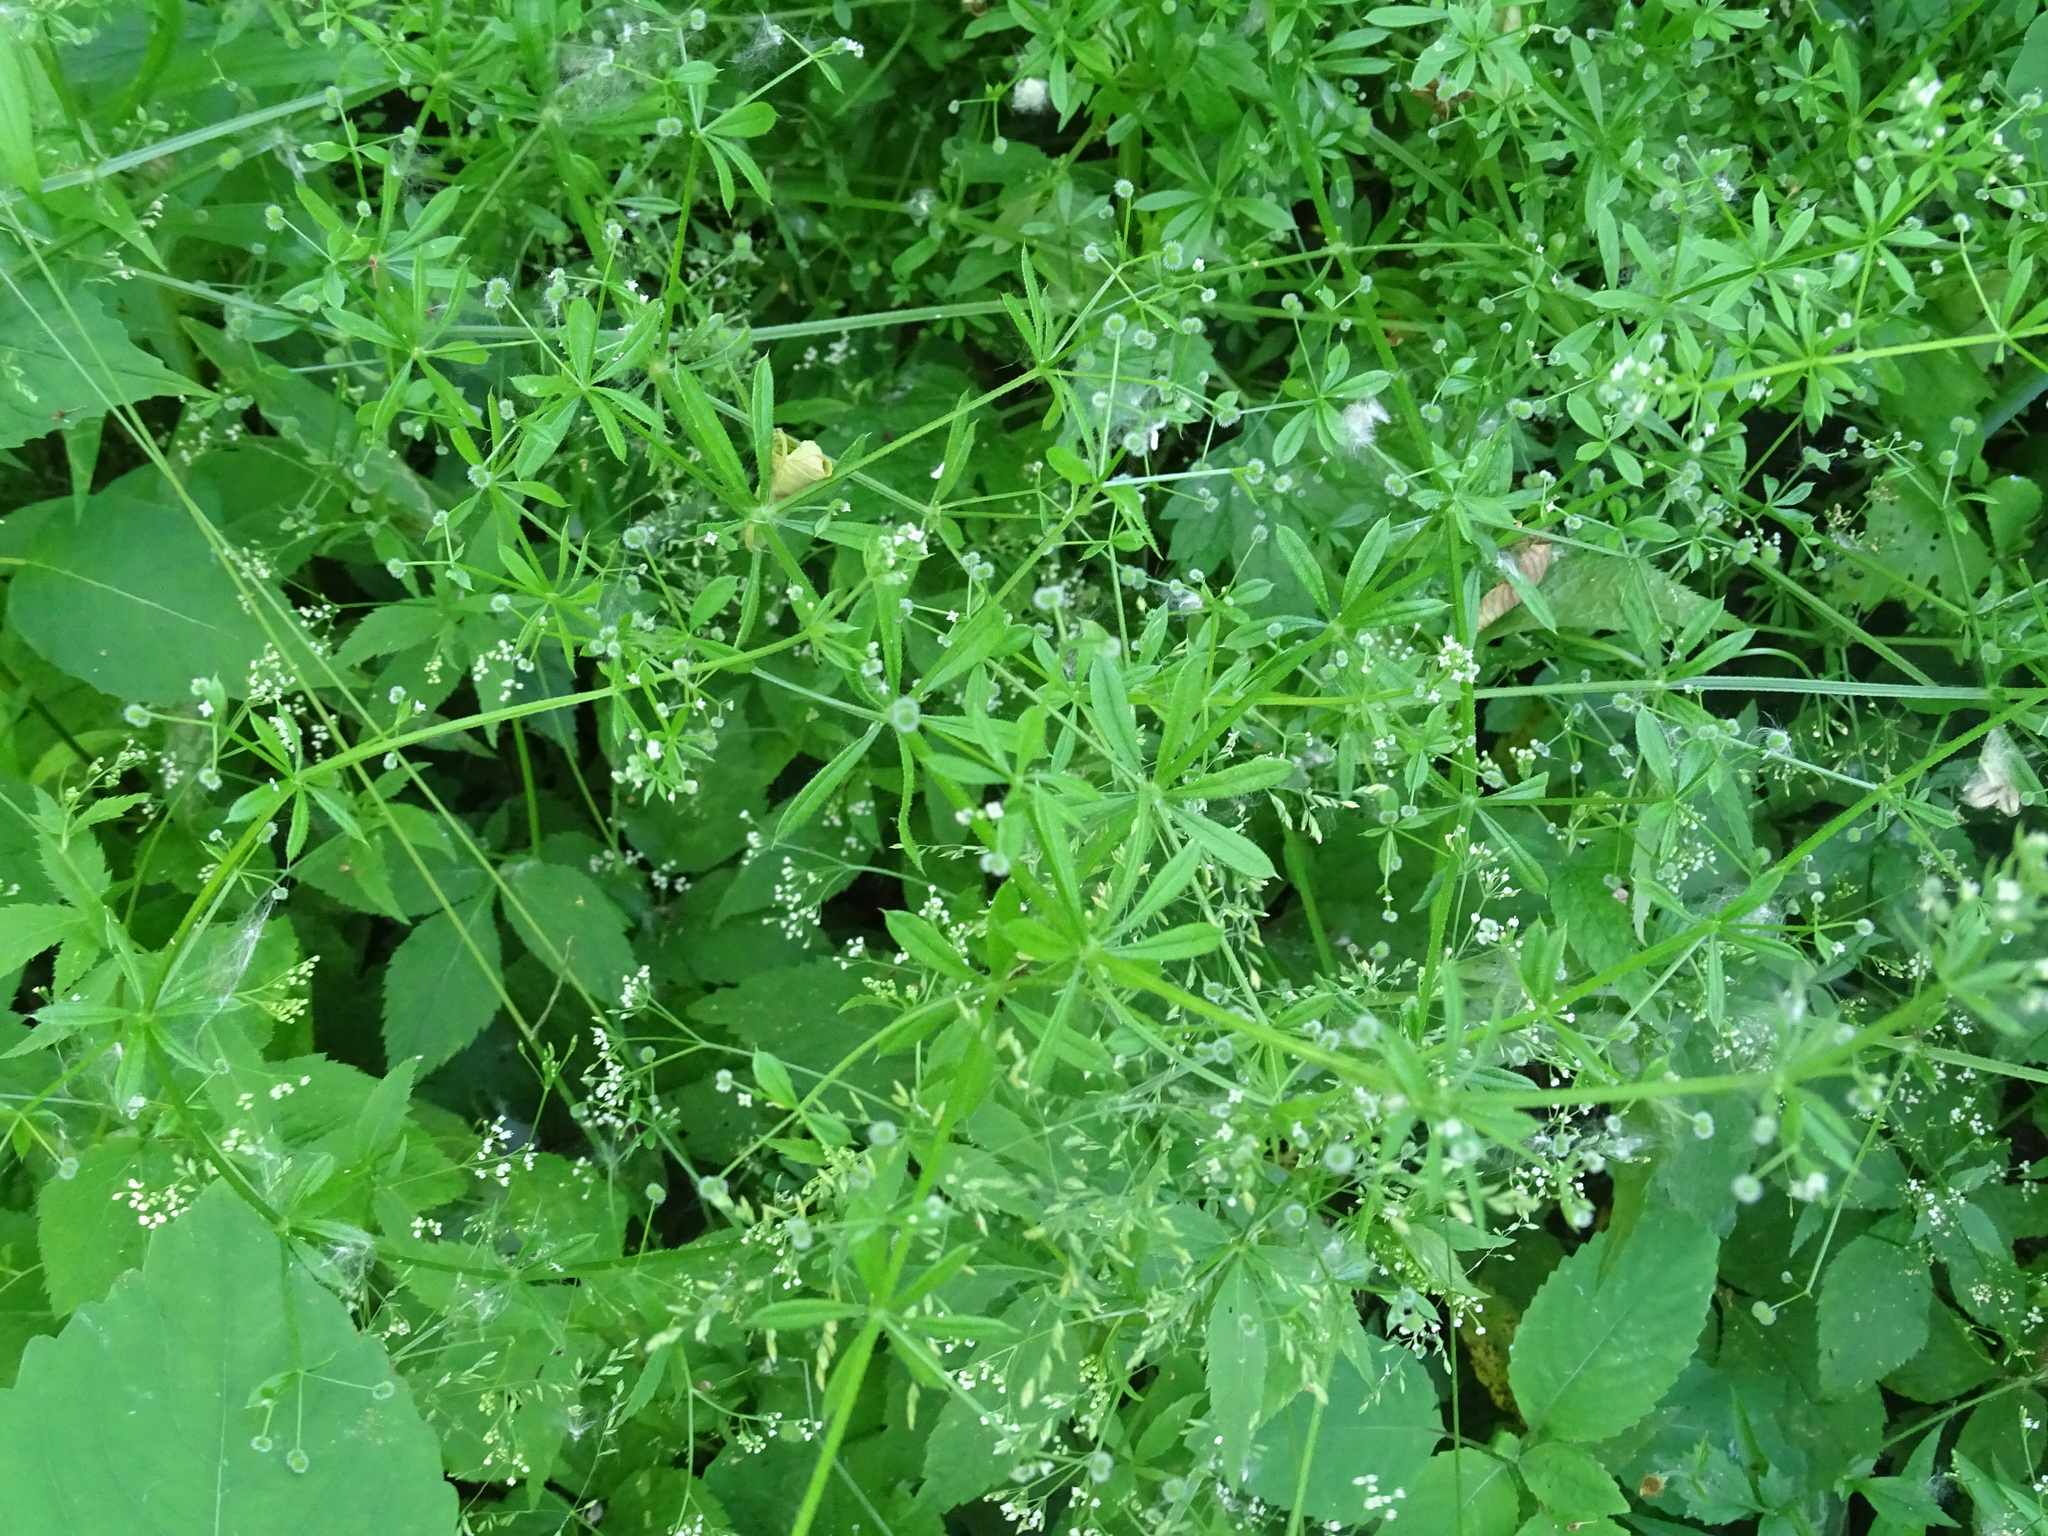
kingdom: Plantae
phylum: Tracheophyta
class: Magnoliopsida
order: Gentianales
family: Rubiaceae
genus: Galium
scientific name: Galium aparine
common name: Cleavers
